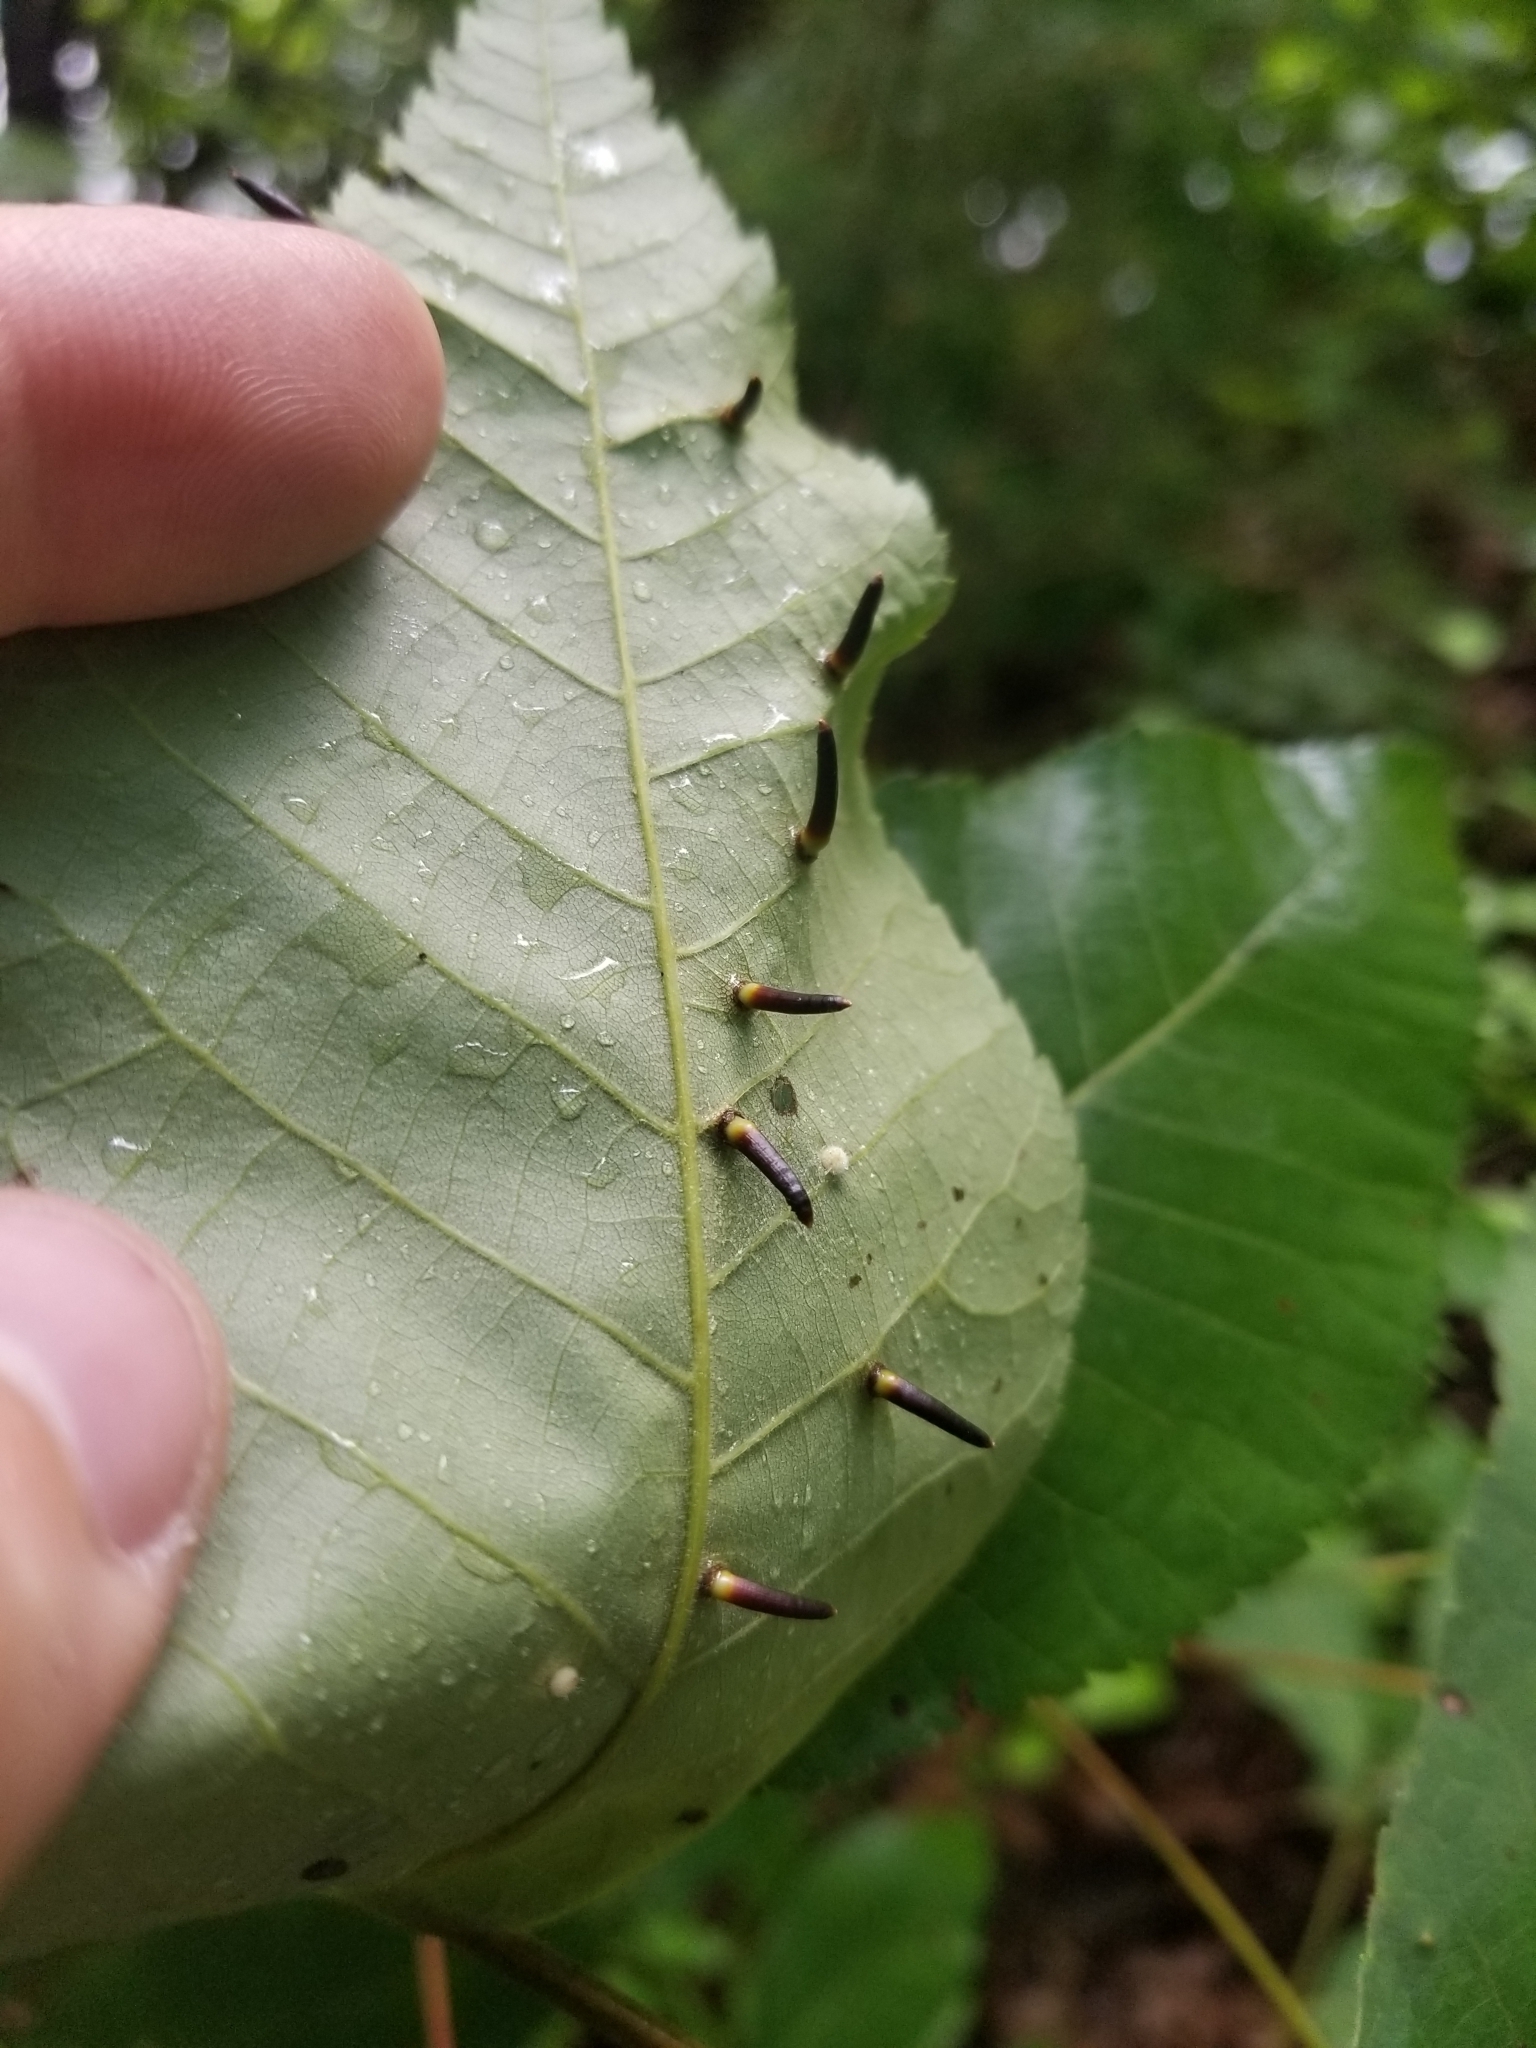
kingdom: Animalia
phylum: Arthropoda
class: Insecta
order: Diptera
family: Cecidomyiidae
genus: Caryomyia
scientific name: Caryomyia subulata
